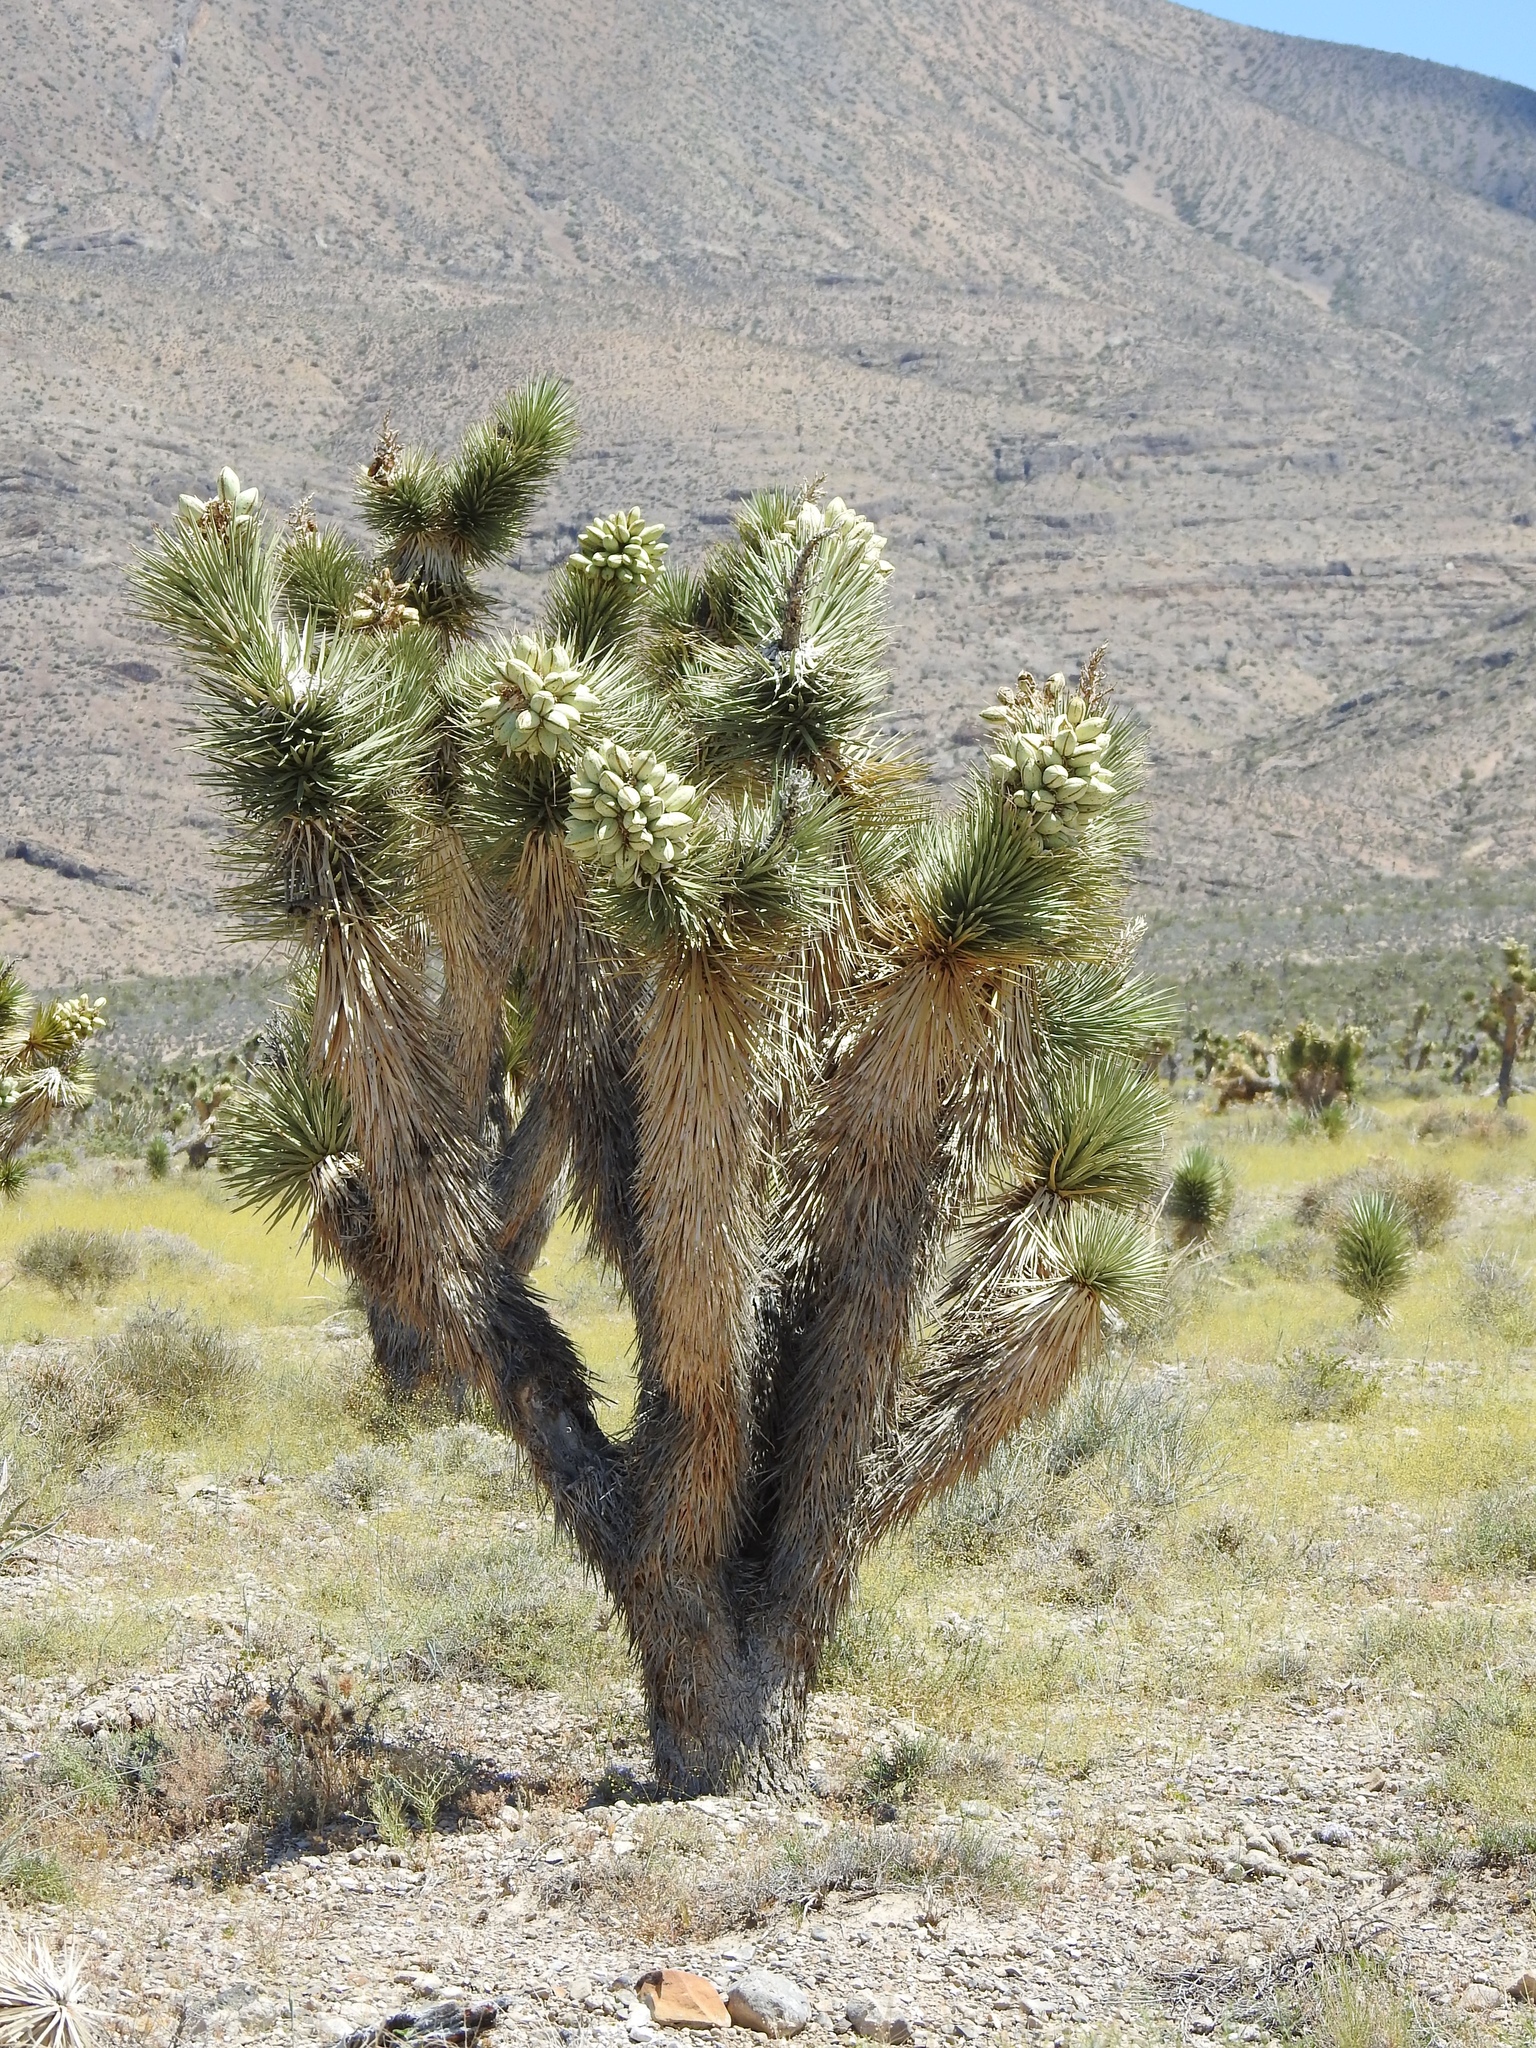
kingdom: Plantae
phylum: Tracheophyta
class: Liliopsida
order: Asparagales
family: Asparagaceae
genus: Yucca
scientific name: Yucca brevifolia
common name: Joshua tree
